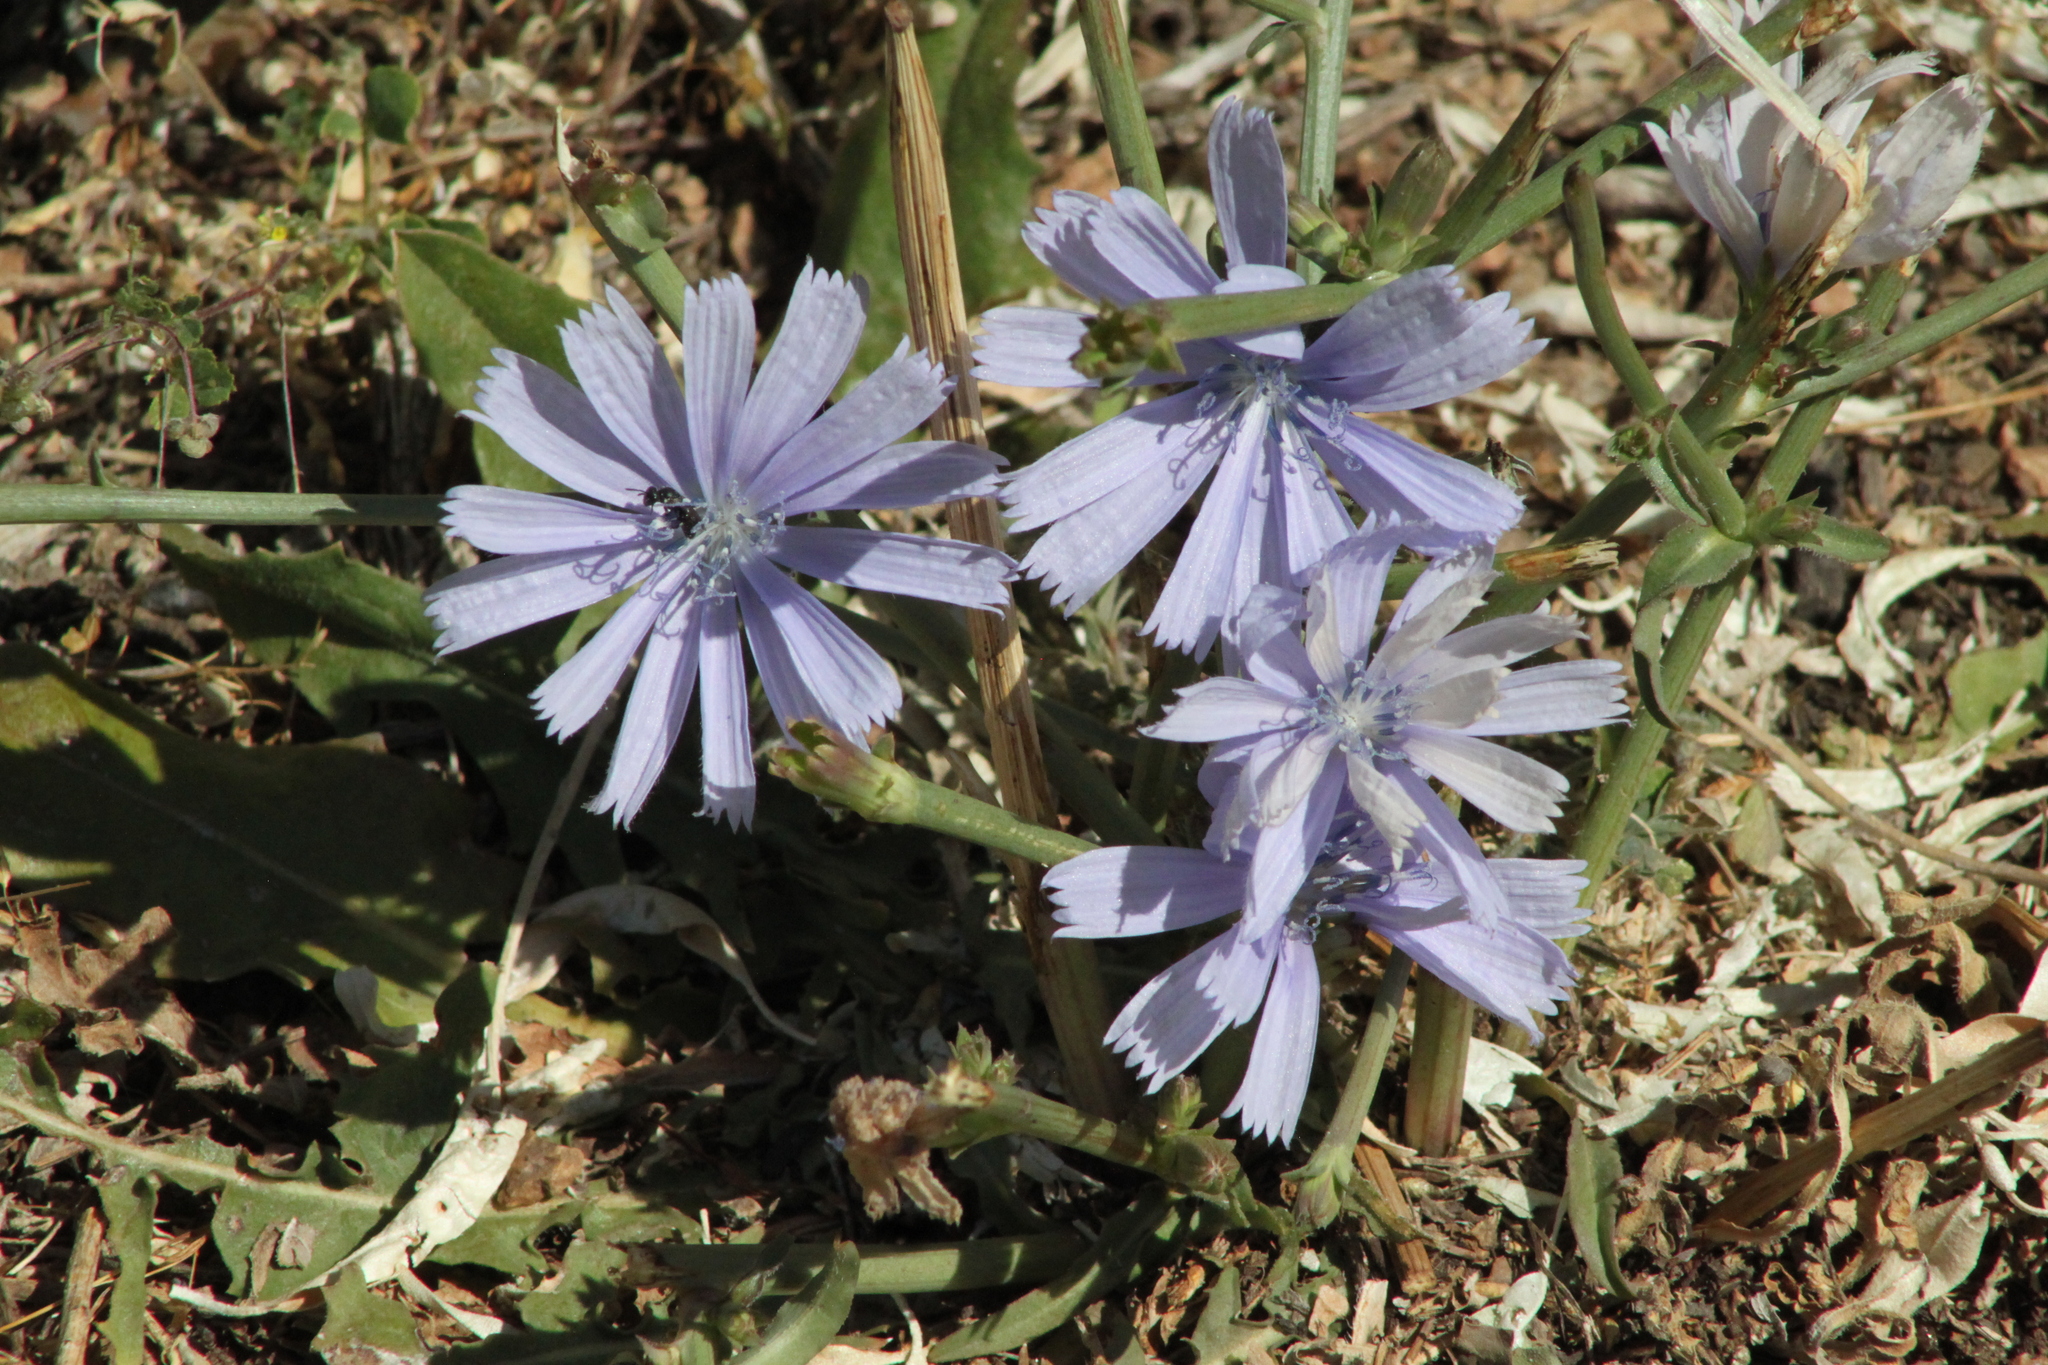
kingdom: Plantae
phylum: Tracheophyta
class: Magnoliopsida
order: Asterales
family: Asteraceae
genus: Cichorium
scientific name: Cichorium intybus
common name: Chicory
